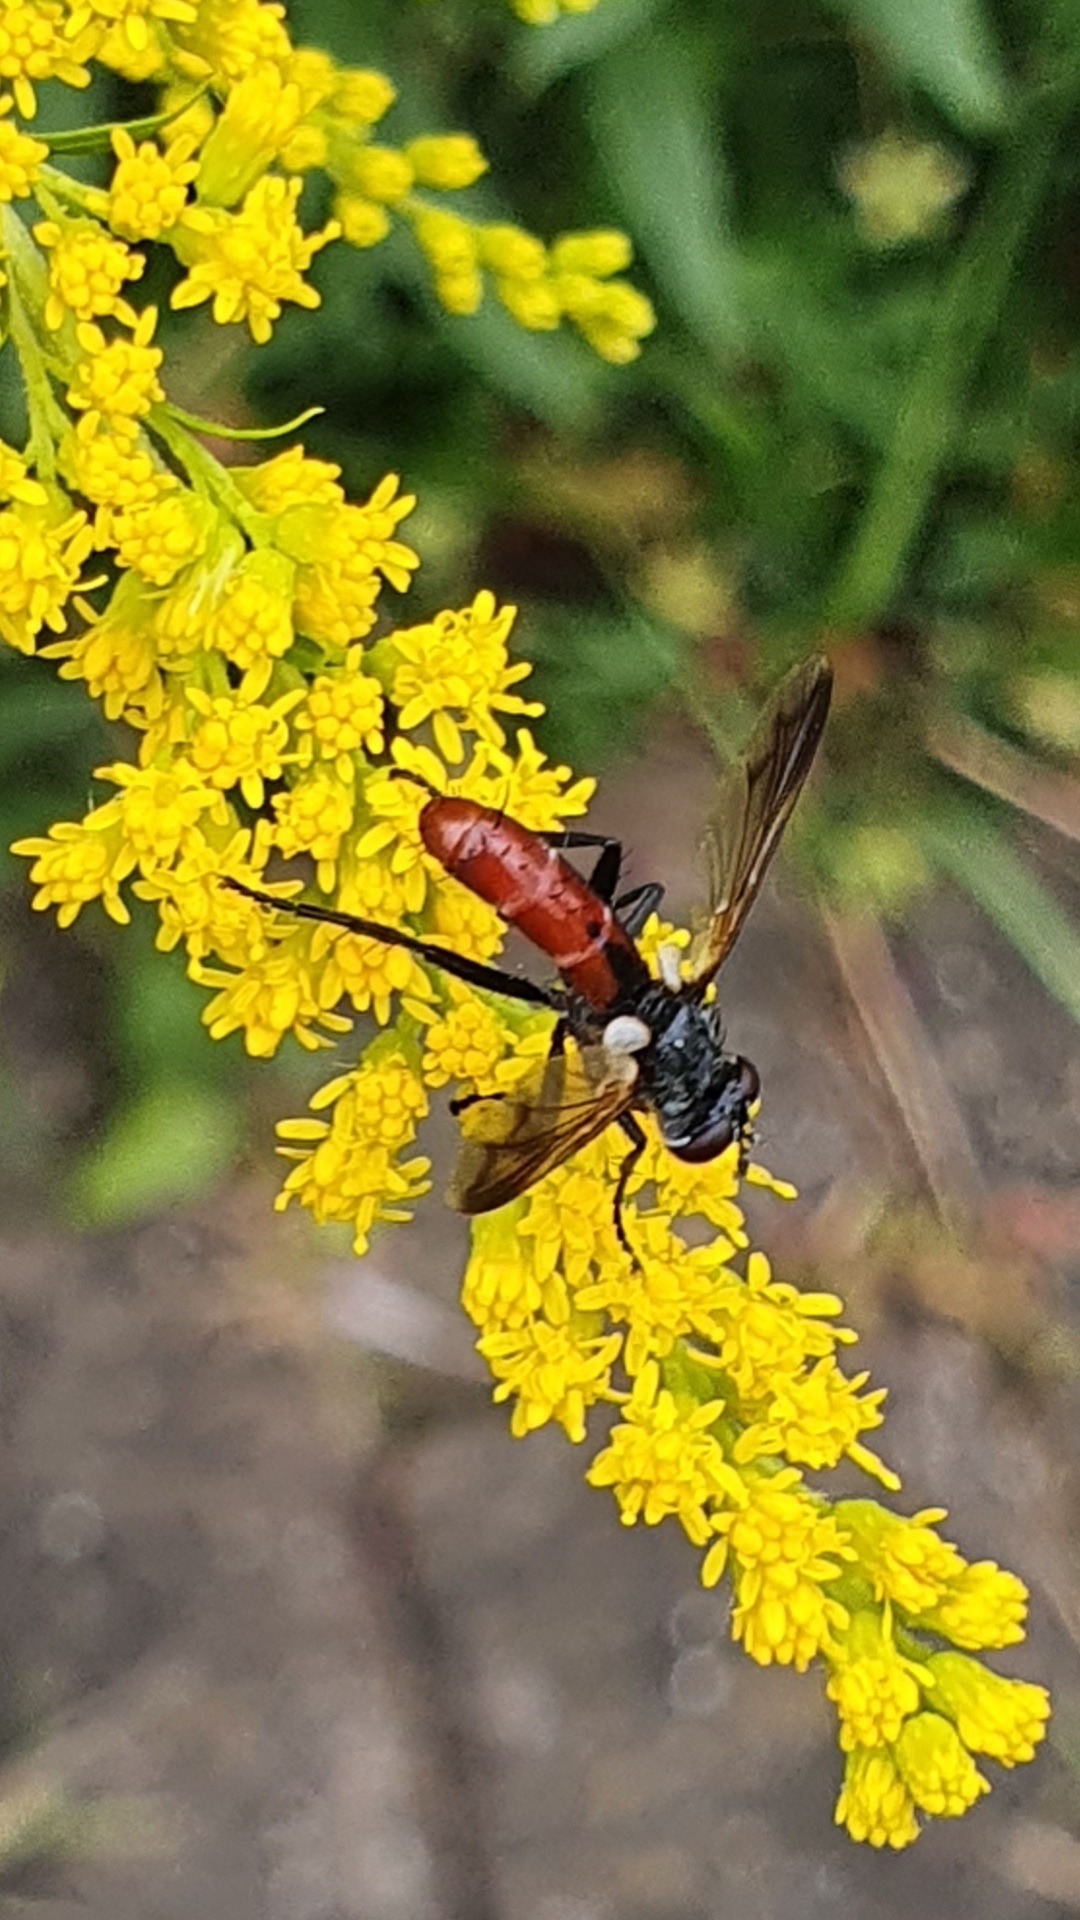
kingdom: Animalia
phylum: Arthropoda
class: Insecta
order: Diptera
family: Tachinidae
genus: Cylindromyia
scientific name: Cylindromyia bicolor
